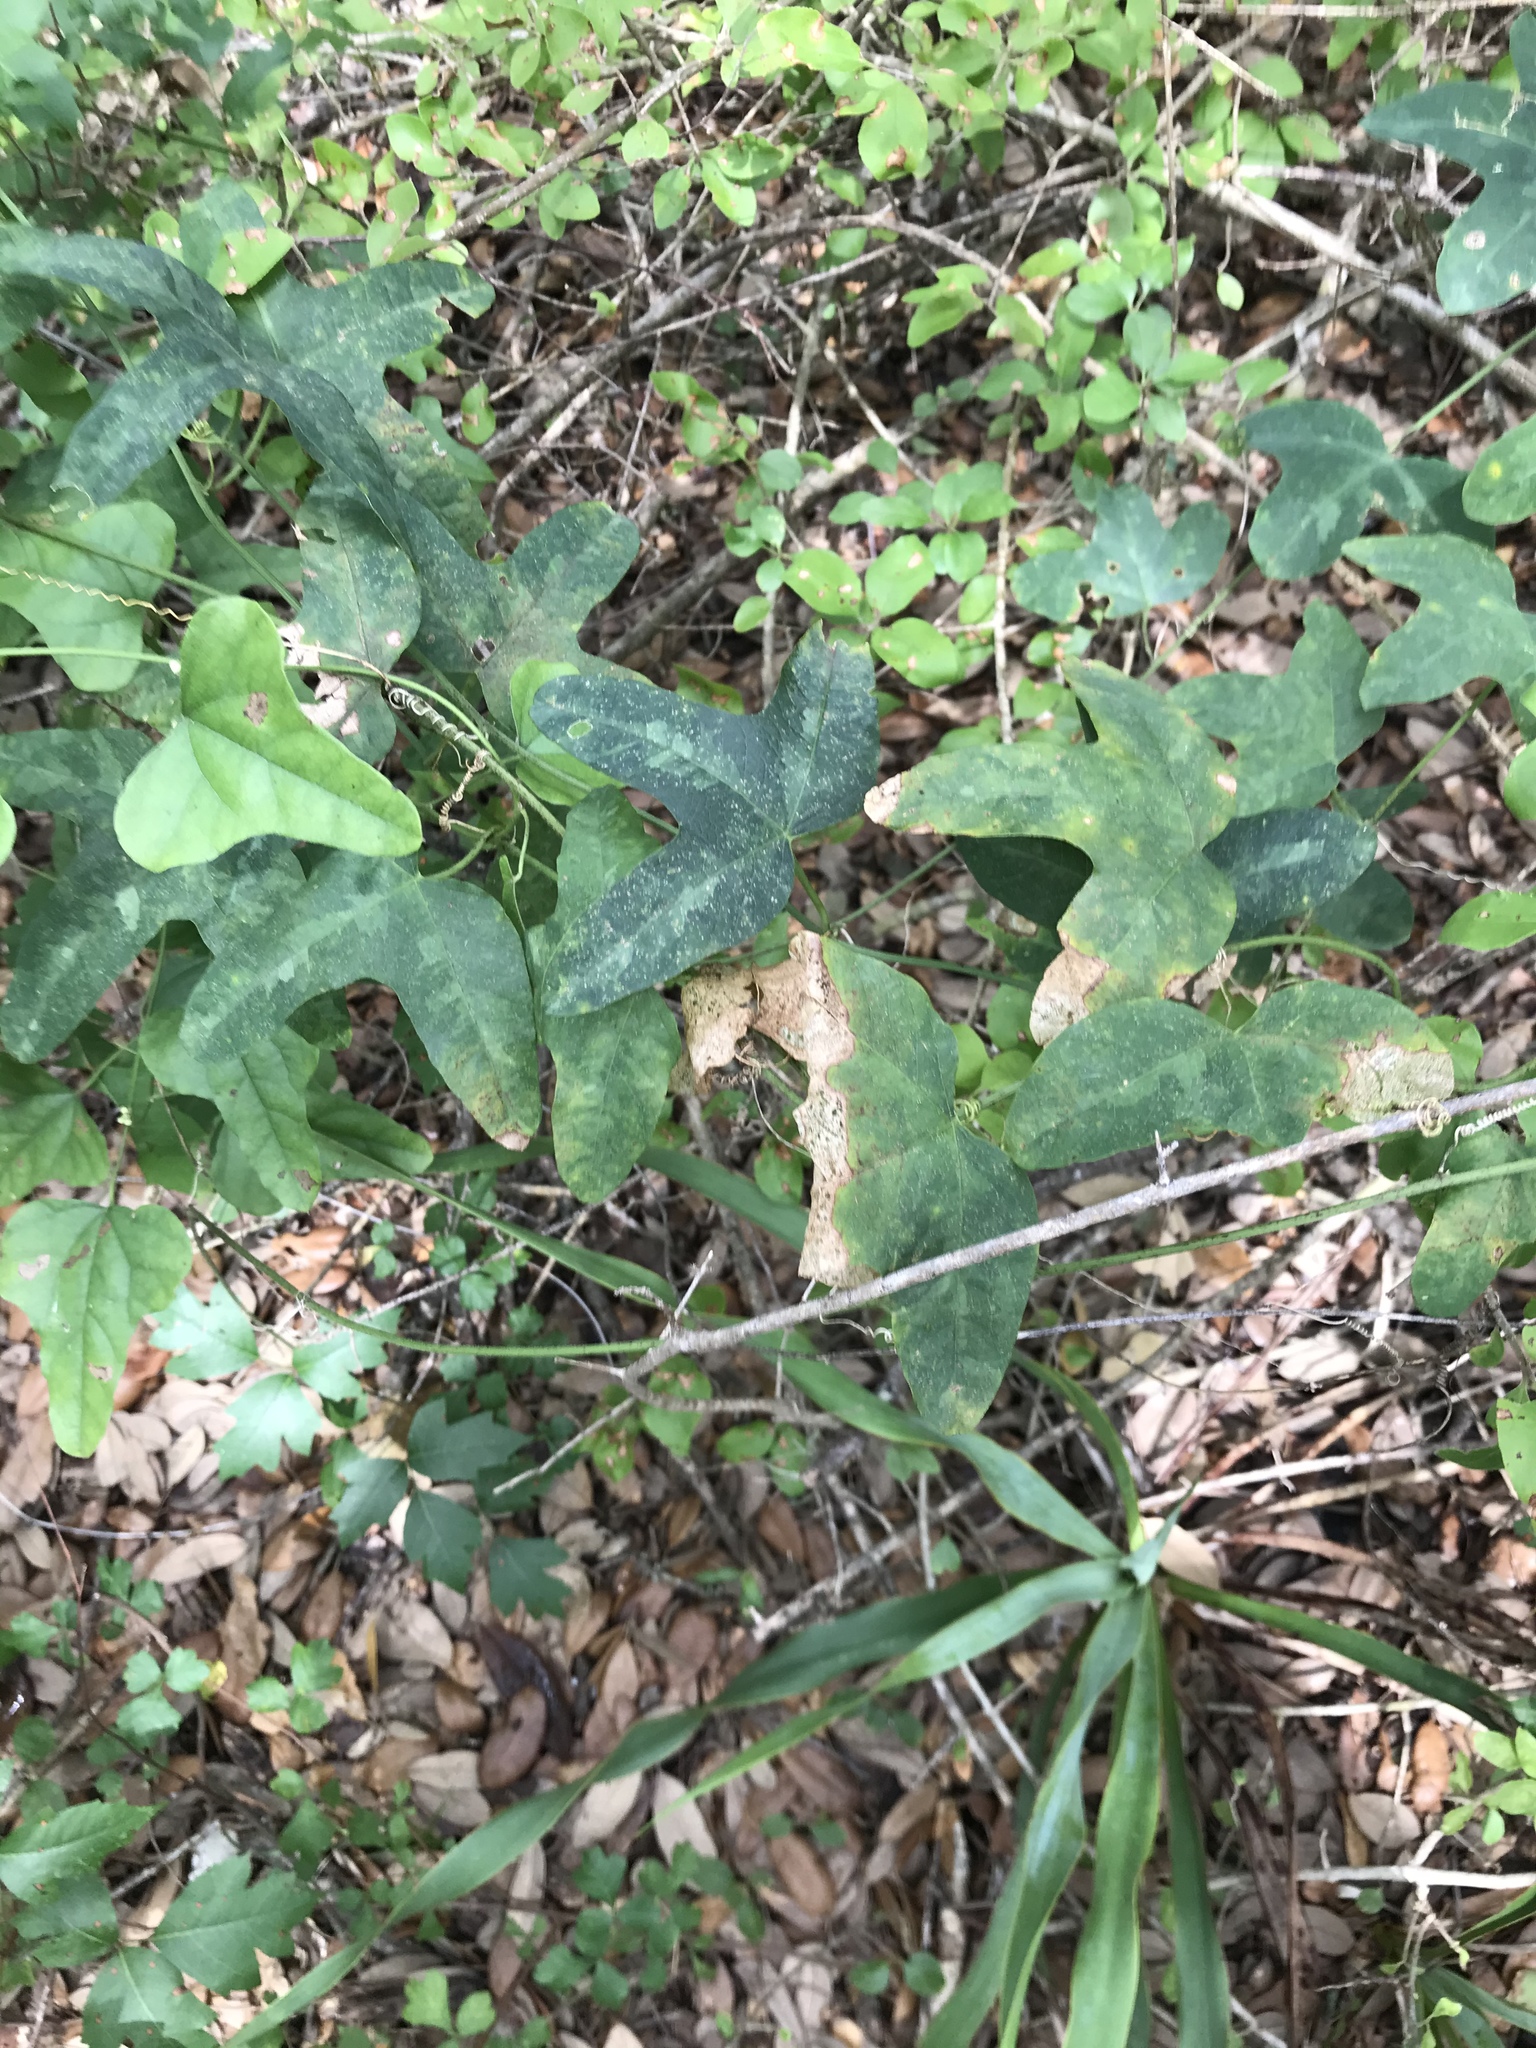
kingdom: Plantae
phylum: Tracheophyta
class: Magnoliopsida
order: Malpighiales
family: Passifloraceae
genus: Passiflora
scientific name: Passiflora lutea
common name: Yellow passionflower
